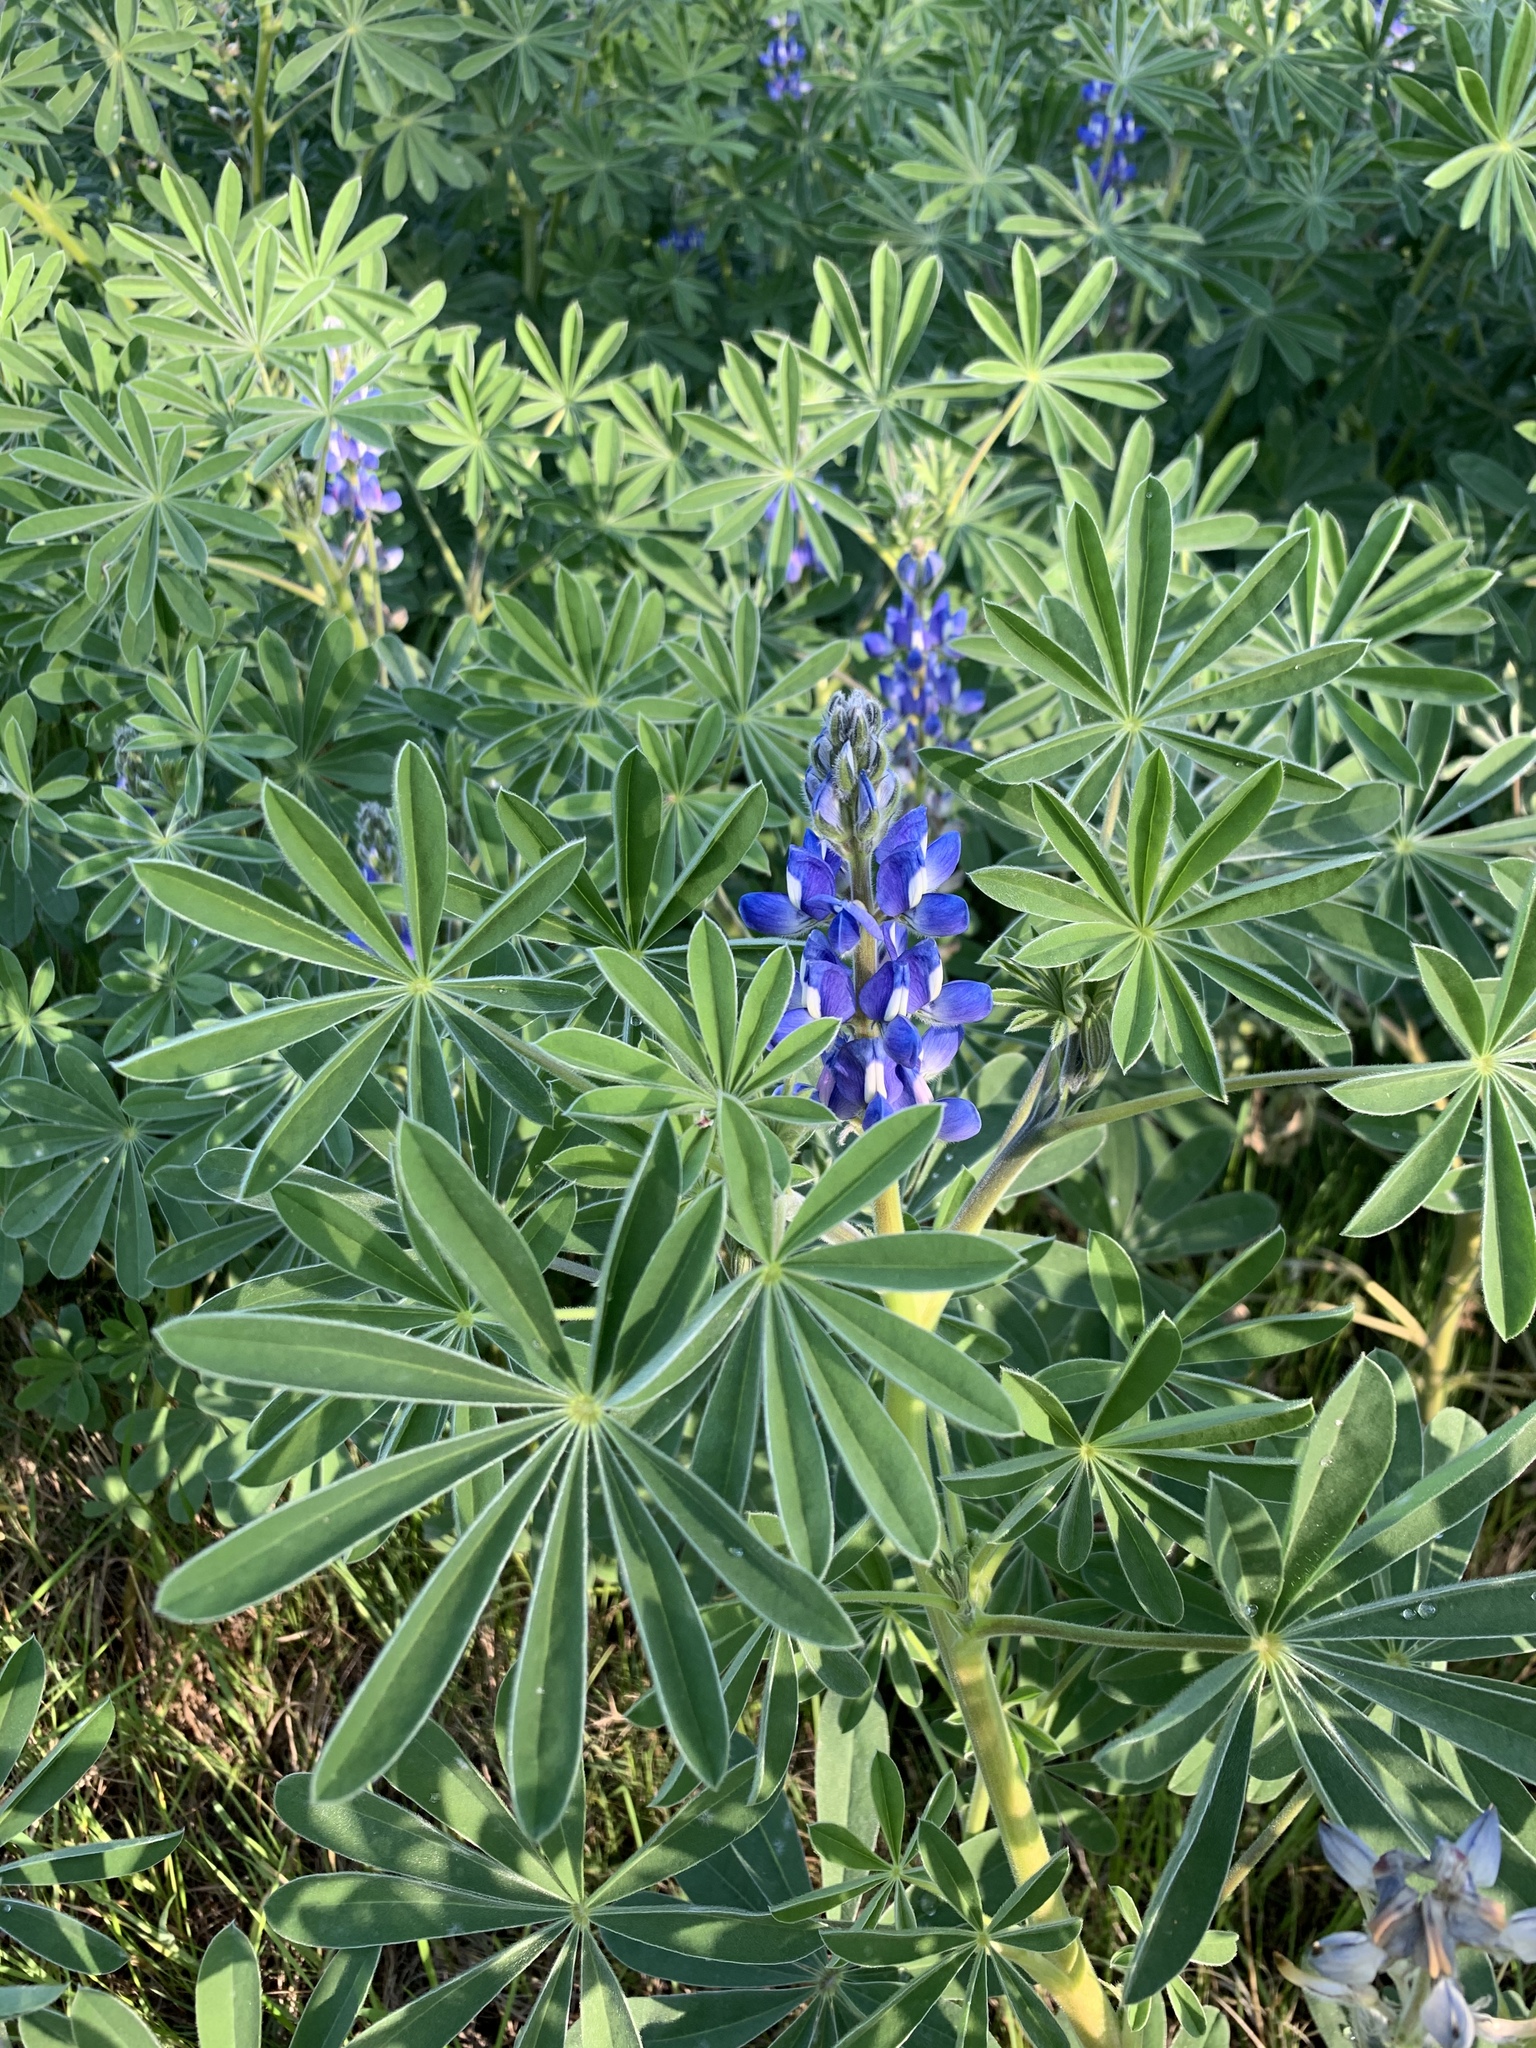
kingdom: Plantae
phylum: Tracheophyta
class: Magnoliopsida
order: Fabales
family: Fabaceae
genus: Lupinus
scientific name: Lupinus cosentinii
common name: Hairy blue lupin
